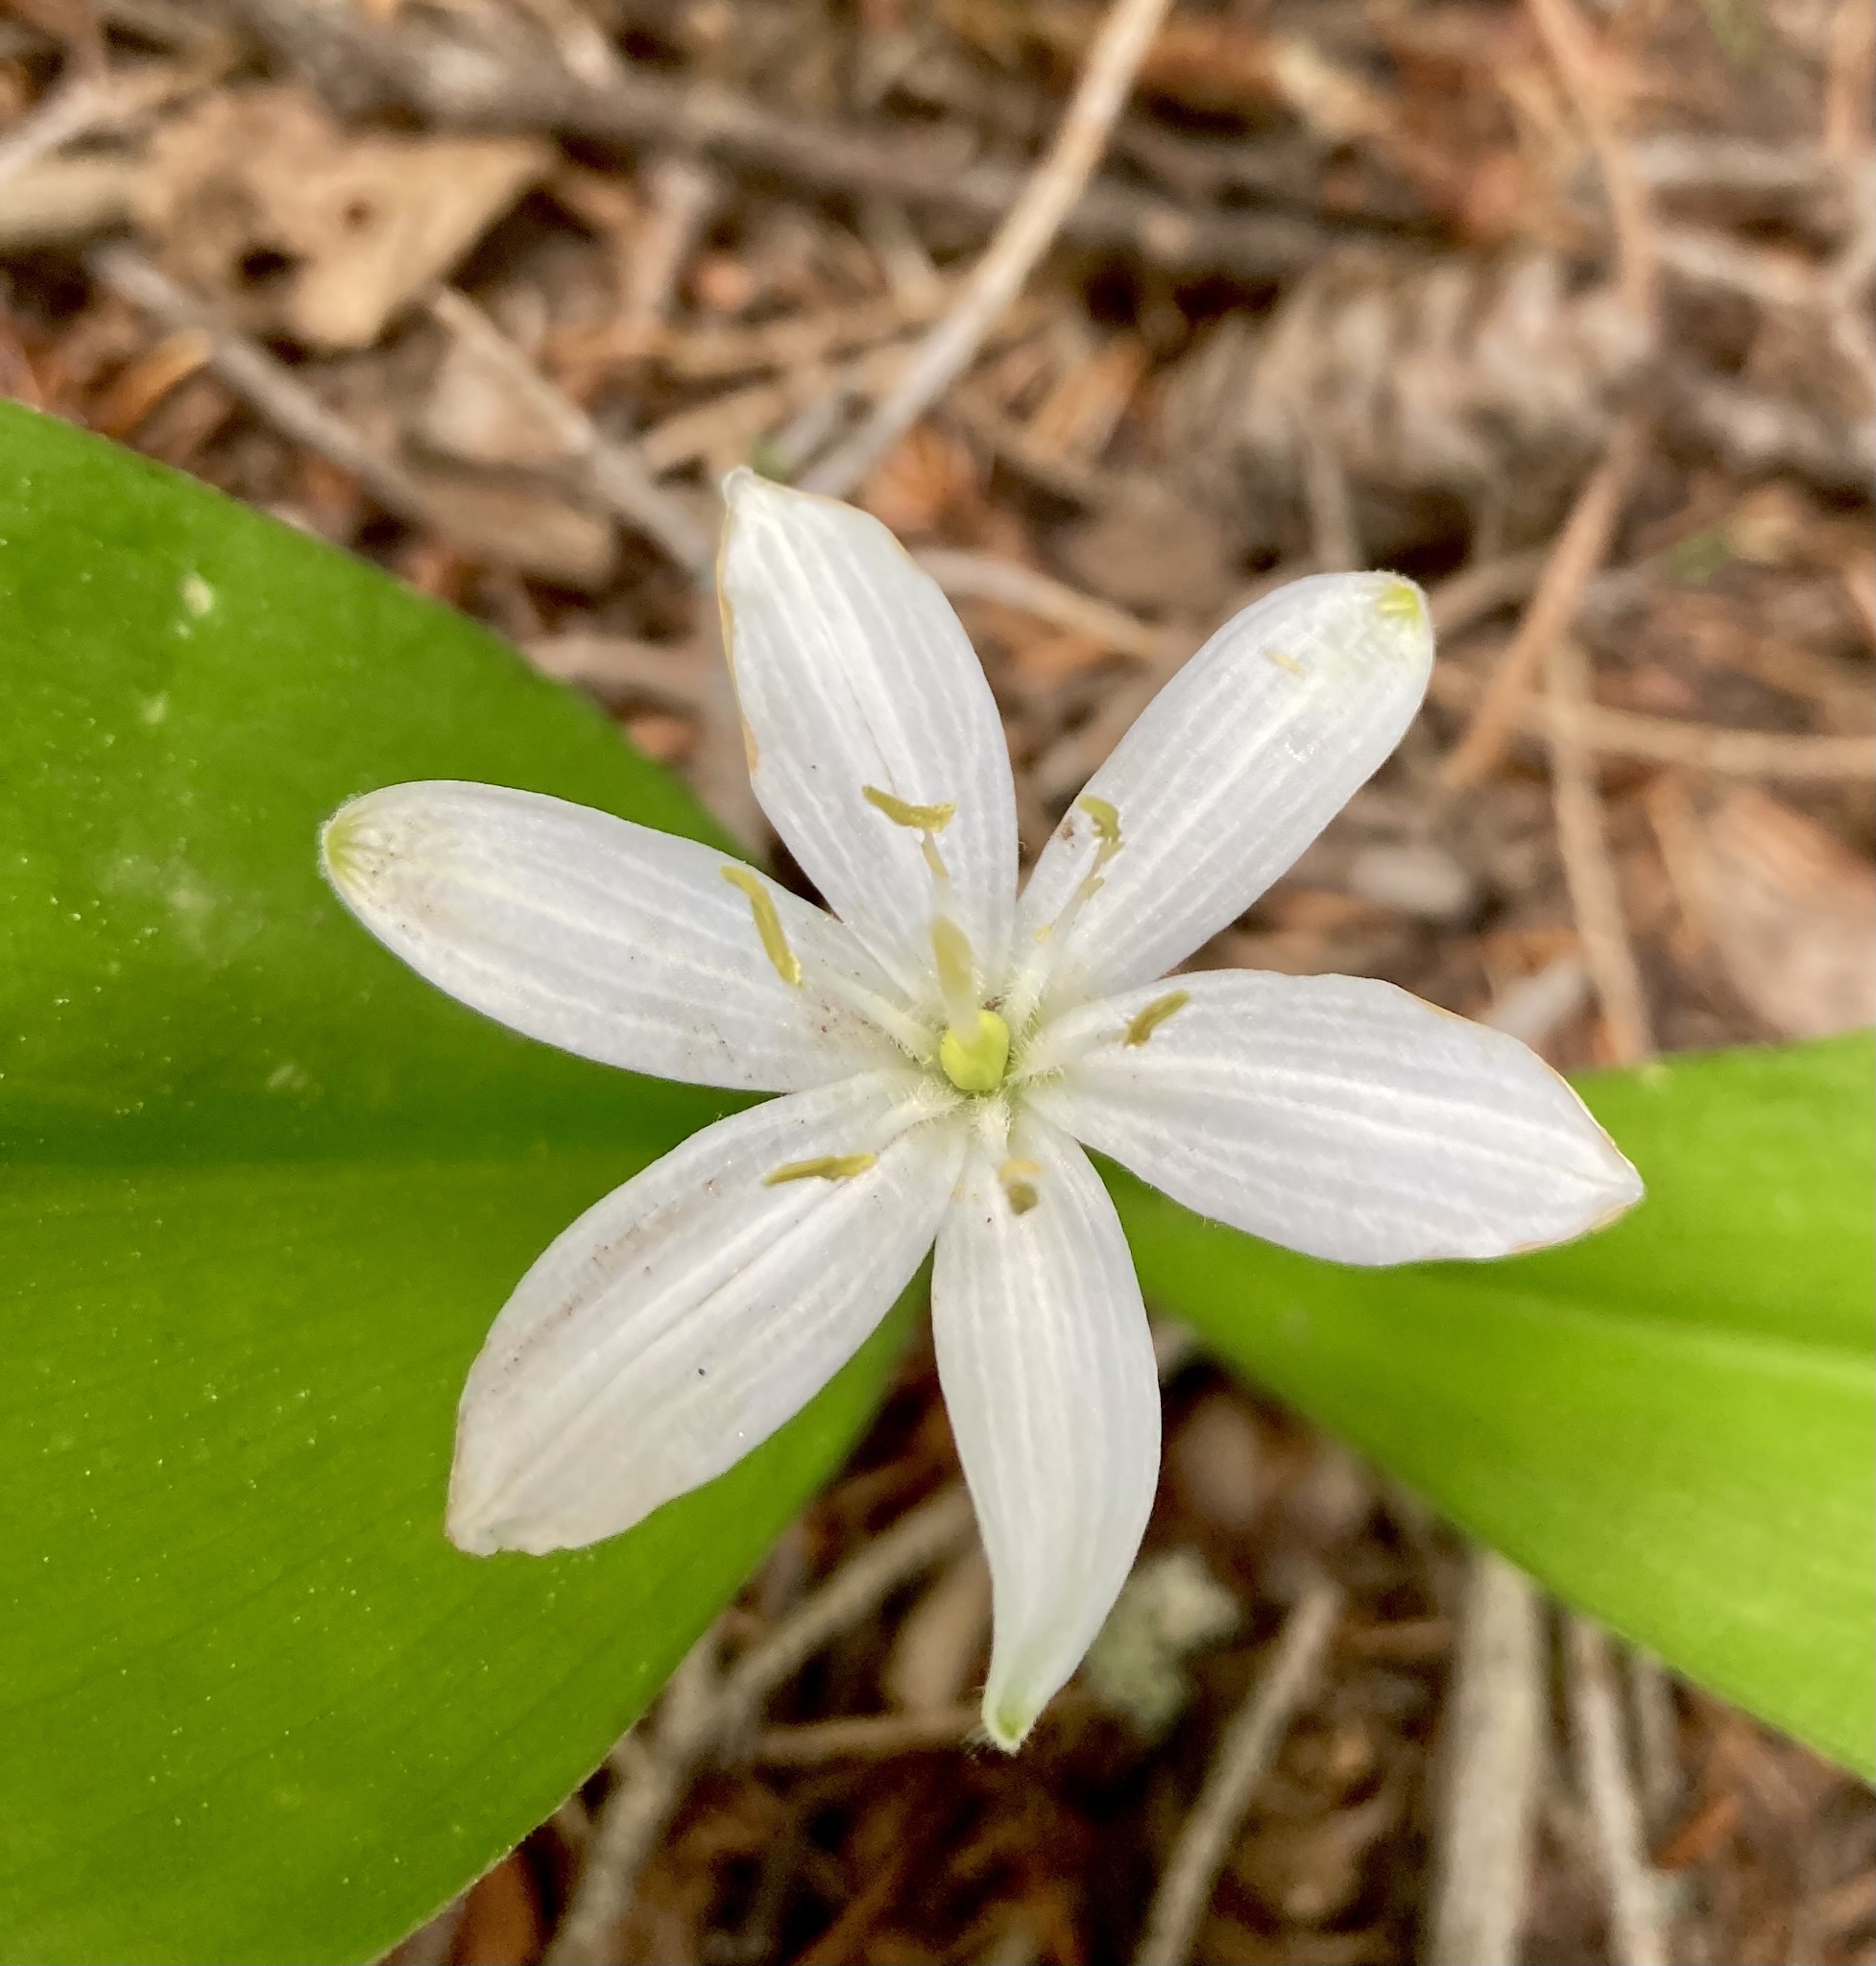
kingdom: Plantae
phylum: Tracheophyta
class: Liliopsida
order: Liliales
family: Liliaceae
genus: Clintonia
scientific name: Clintonia uniflora
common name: Queen's cup
